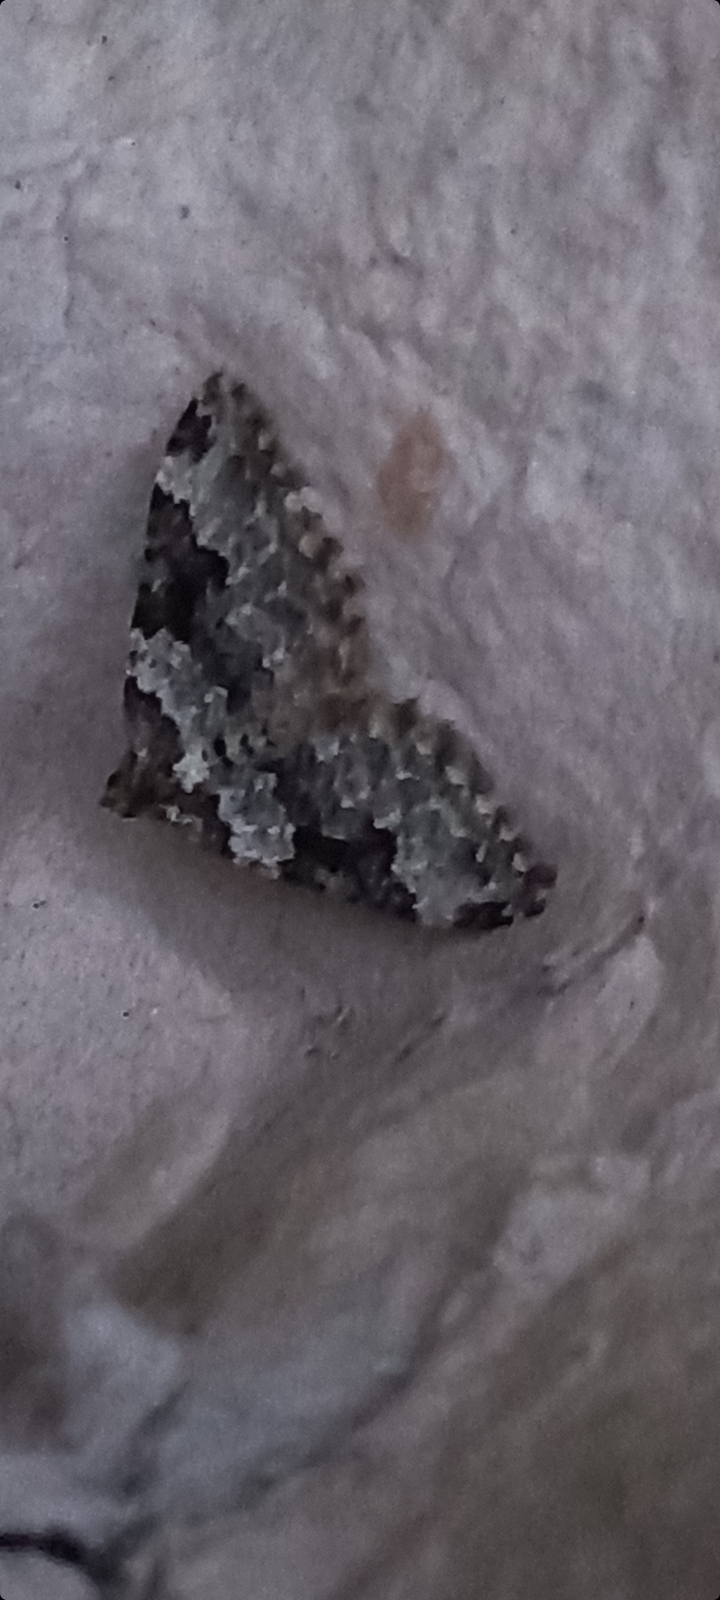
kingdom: Animalia
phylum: Arthropoda
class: Insecta
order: Lepidoptera
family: Geometridae
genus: Xanthorhoe
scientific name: Xanthorhoe fluctuata
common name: Garden carpet
